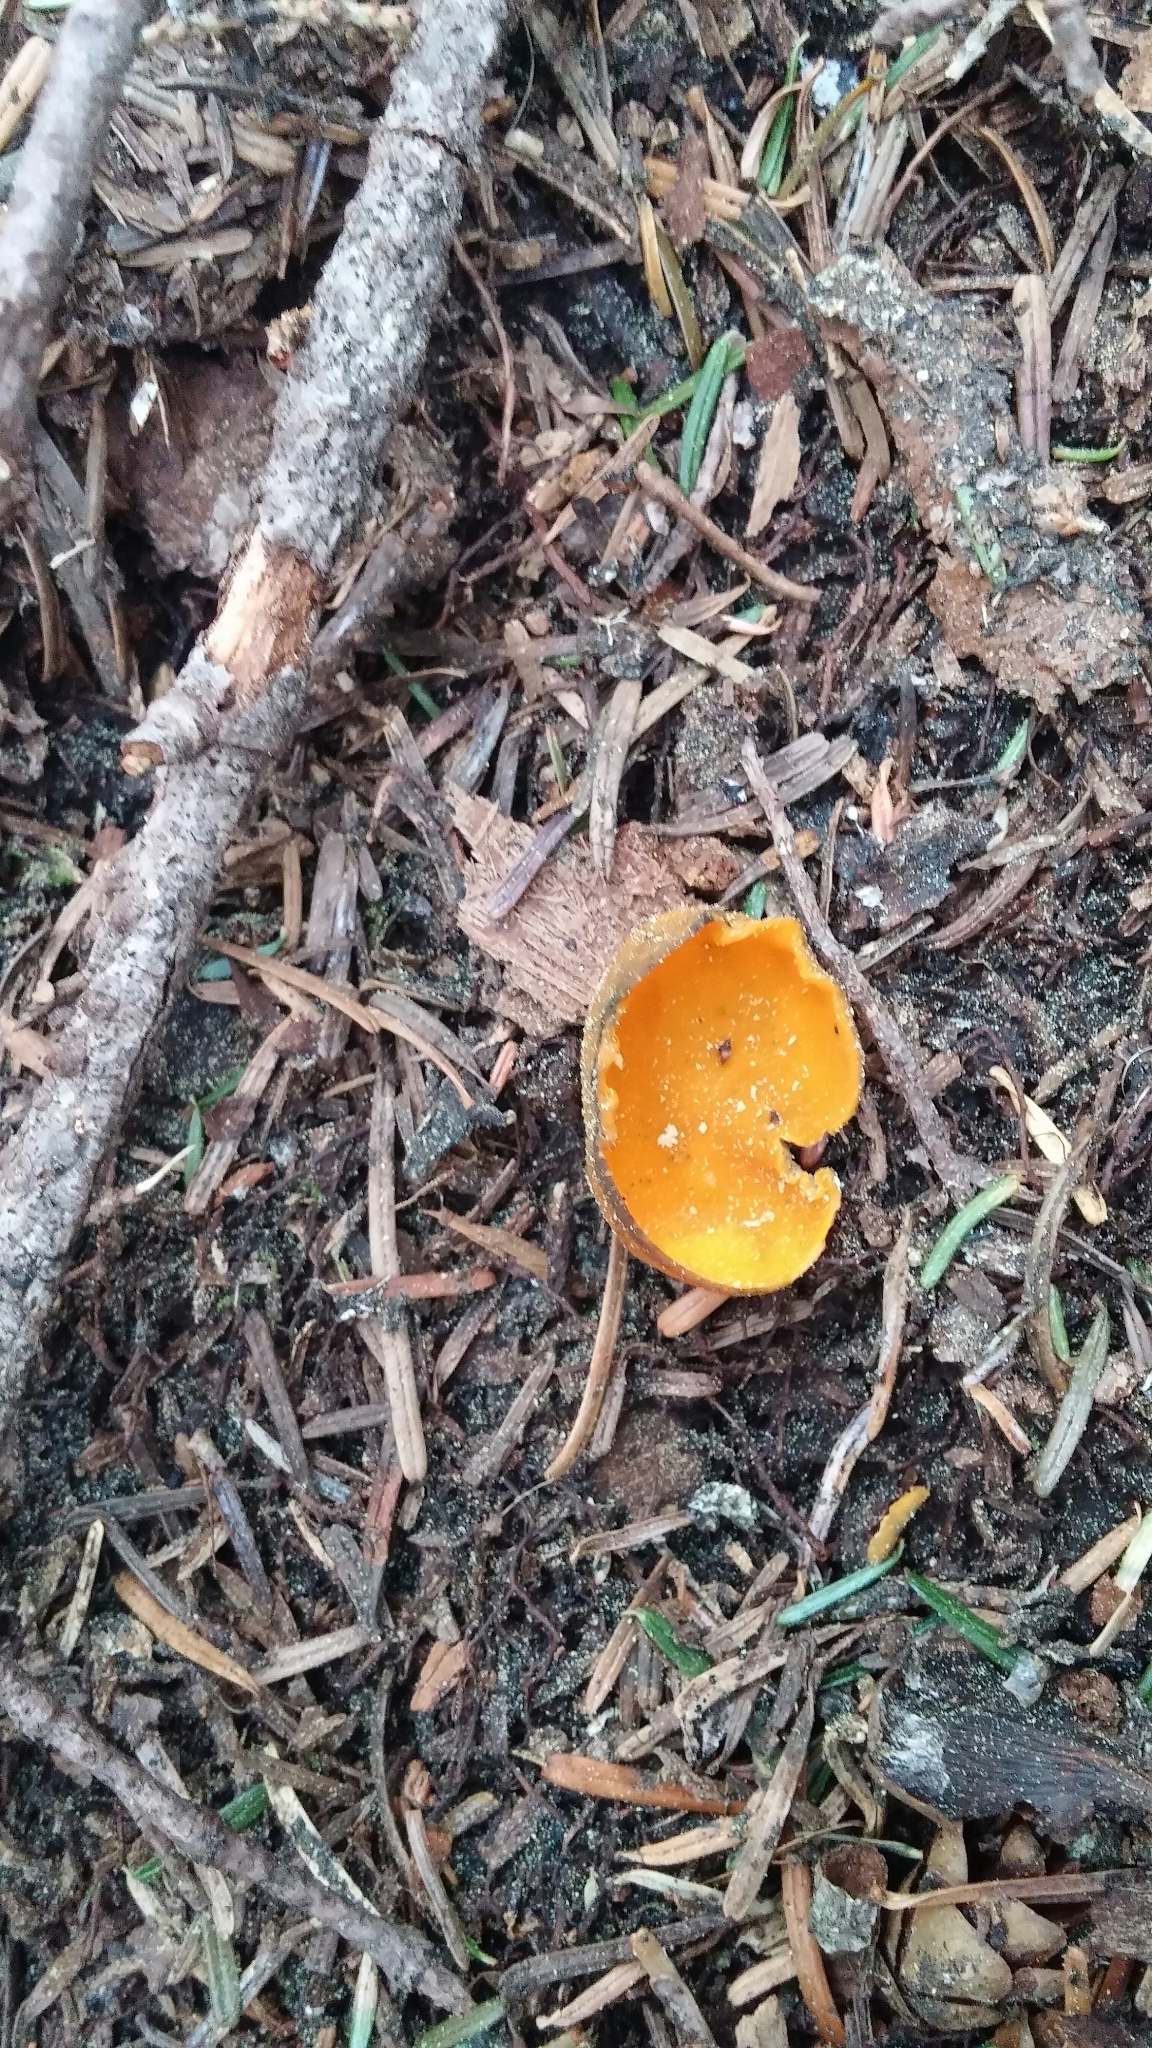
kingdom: Fungi
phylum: Ascomycota
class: Pezizomycetes
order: Pezizales
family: Caloscyphaceae
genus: Caloscypha
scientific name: Caloscypha fulgens
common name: Golden cup
